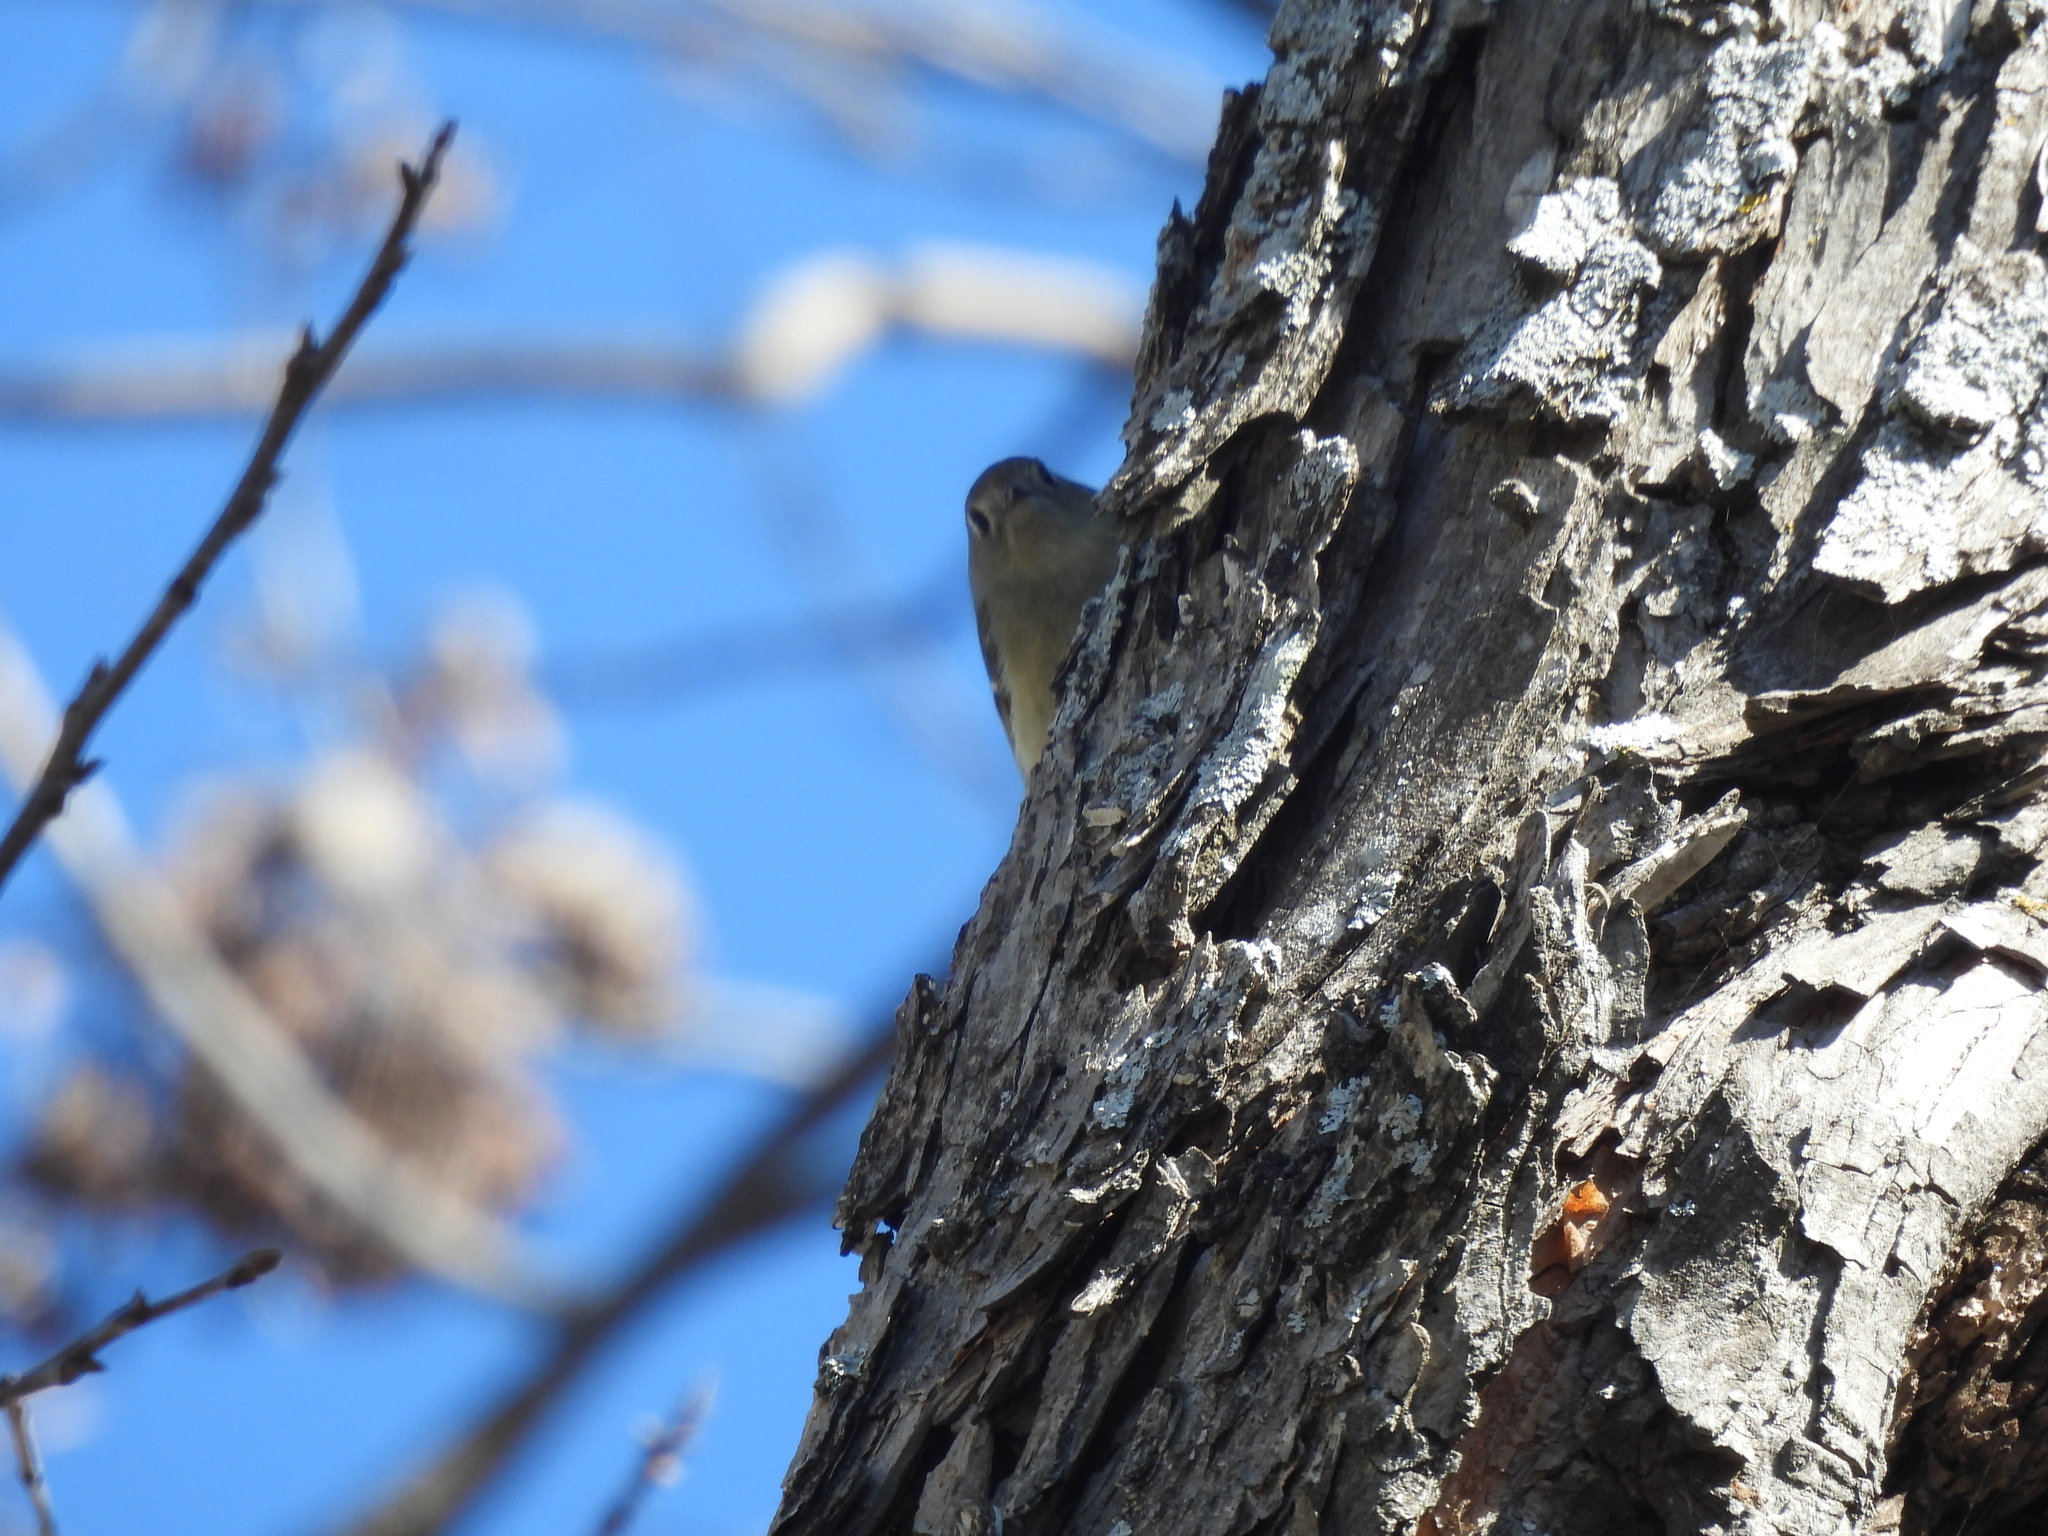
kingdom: Animalia
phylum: Chordata
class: Aves
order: Passeriformes
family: Regulidae
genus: Regulus
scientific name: Regulus calendula
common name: Ruby-crowned kinglet
